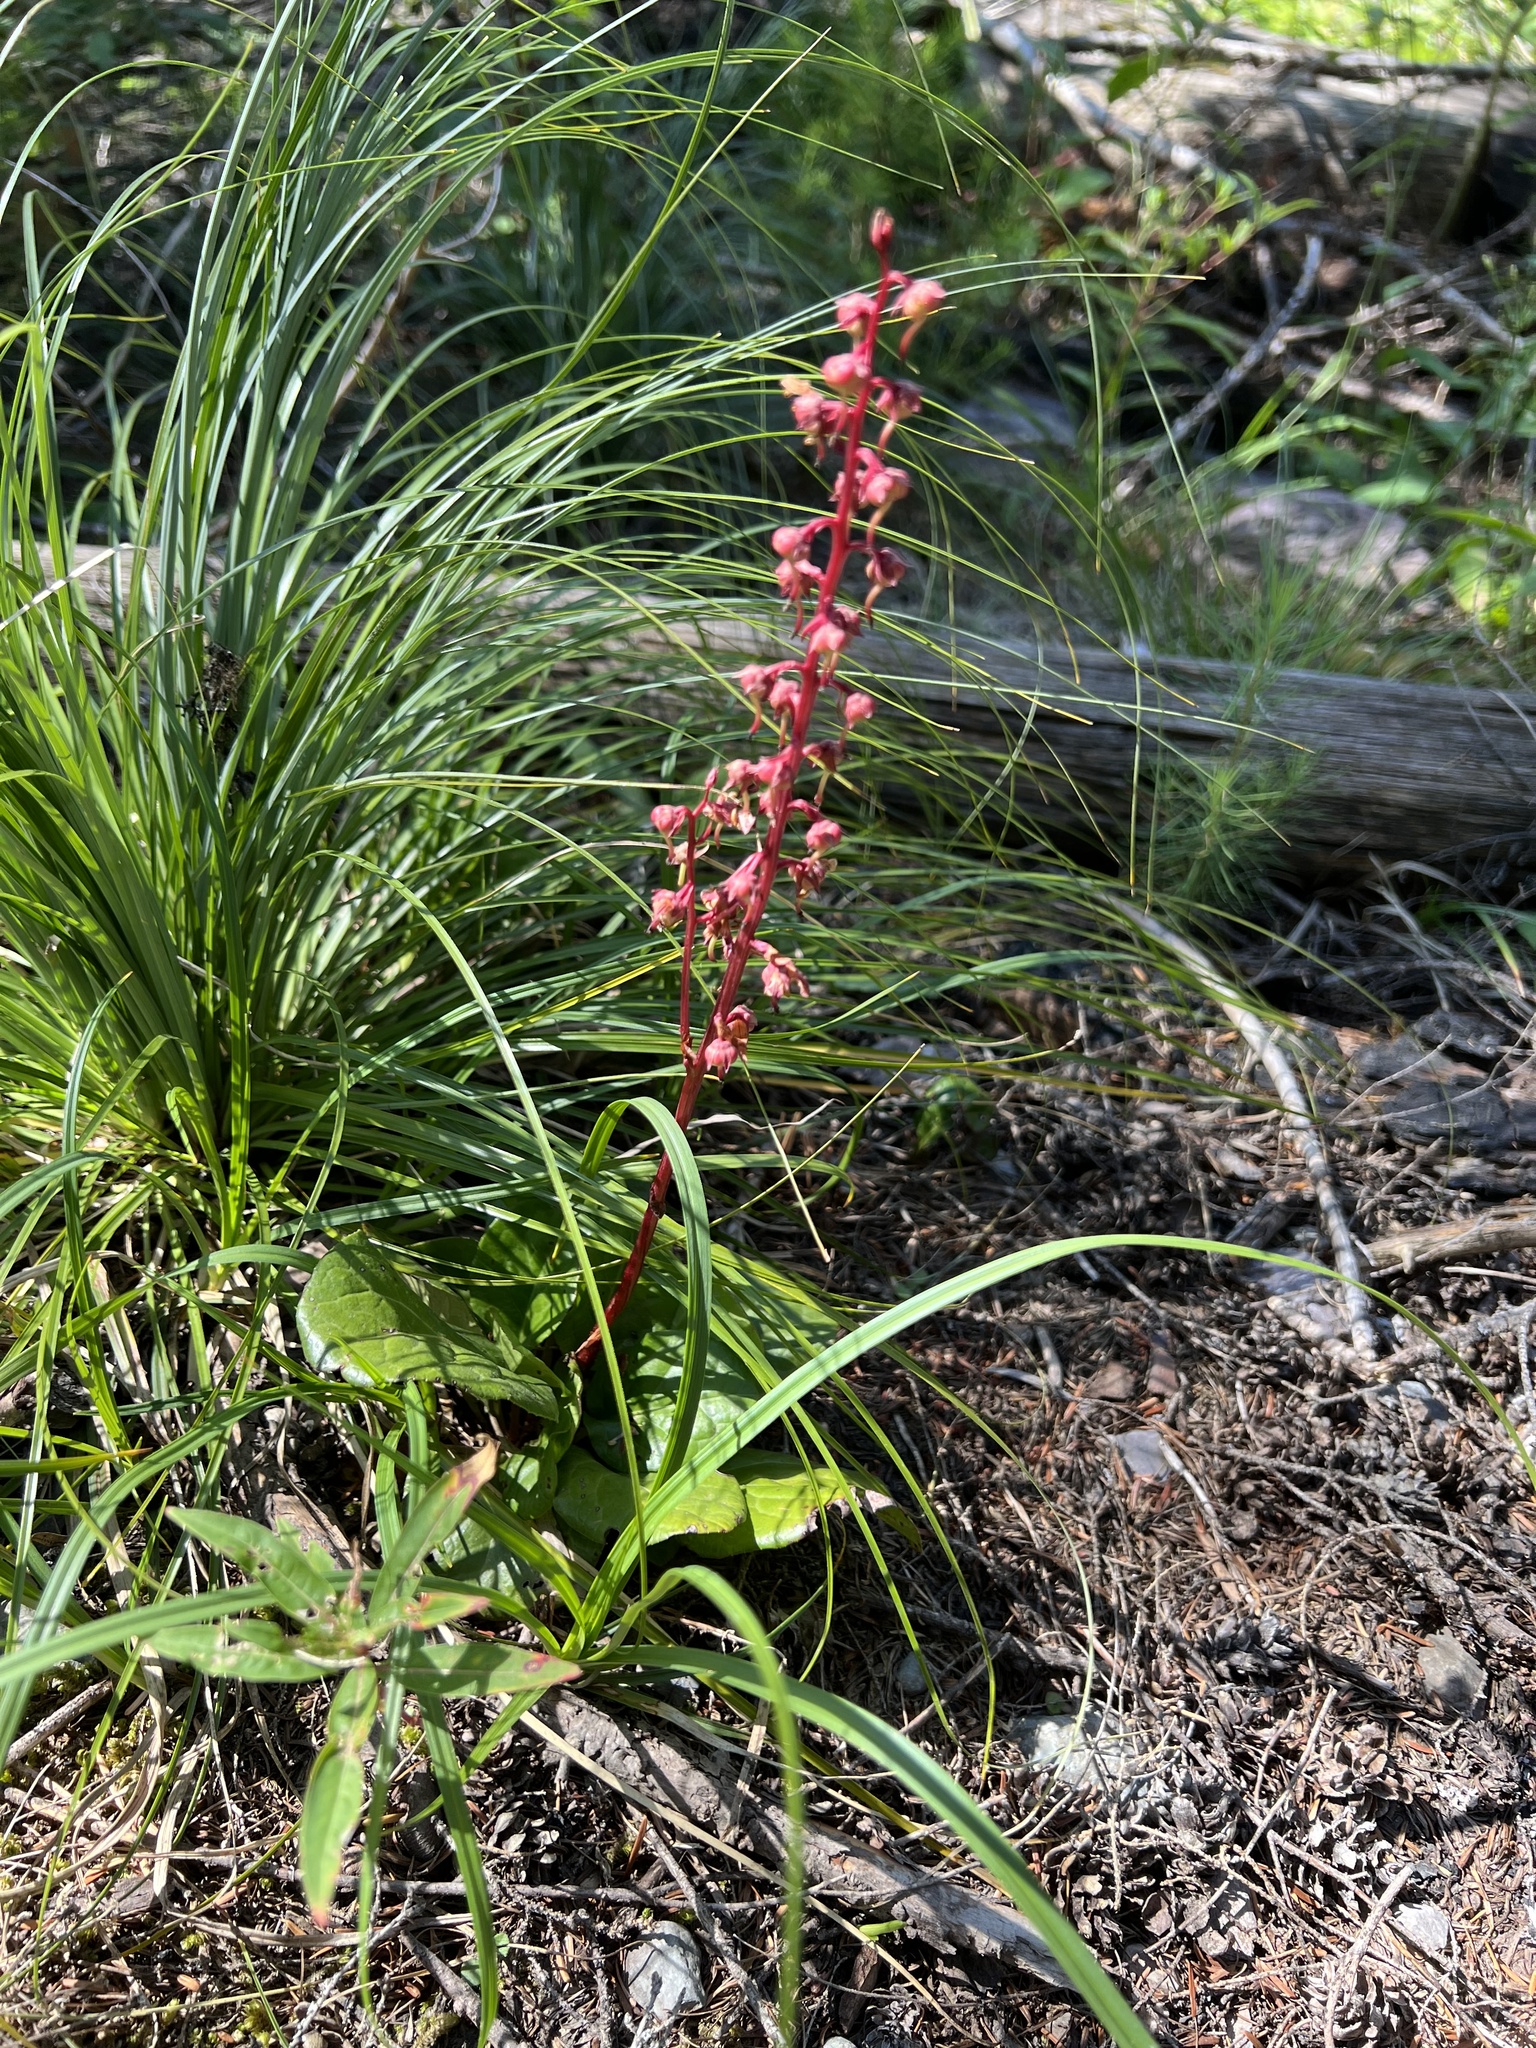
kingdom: Plantae
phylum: Tracheophyta
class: Magnoliopsida
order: Ericales
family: Ericaceae
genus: Pyrola
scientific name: Pyrola asarifolia
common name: Bog wintergreen
